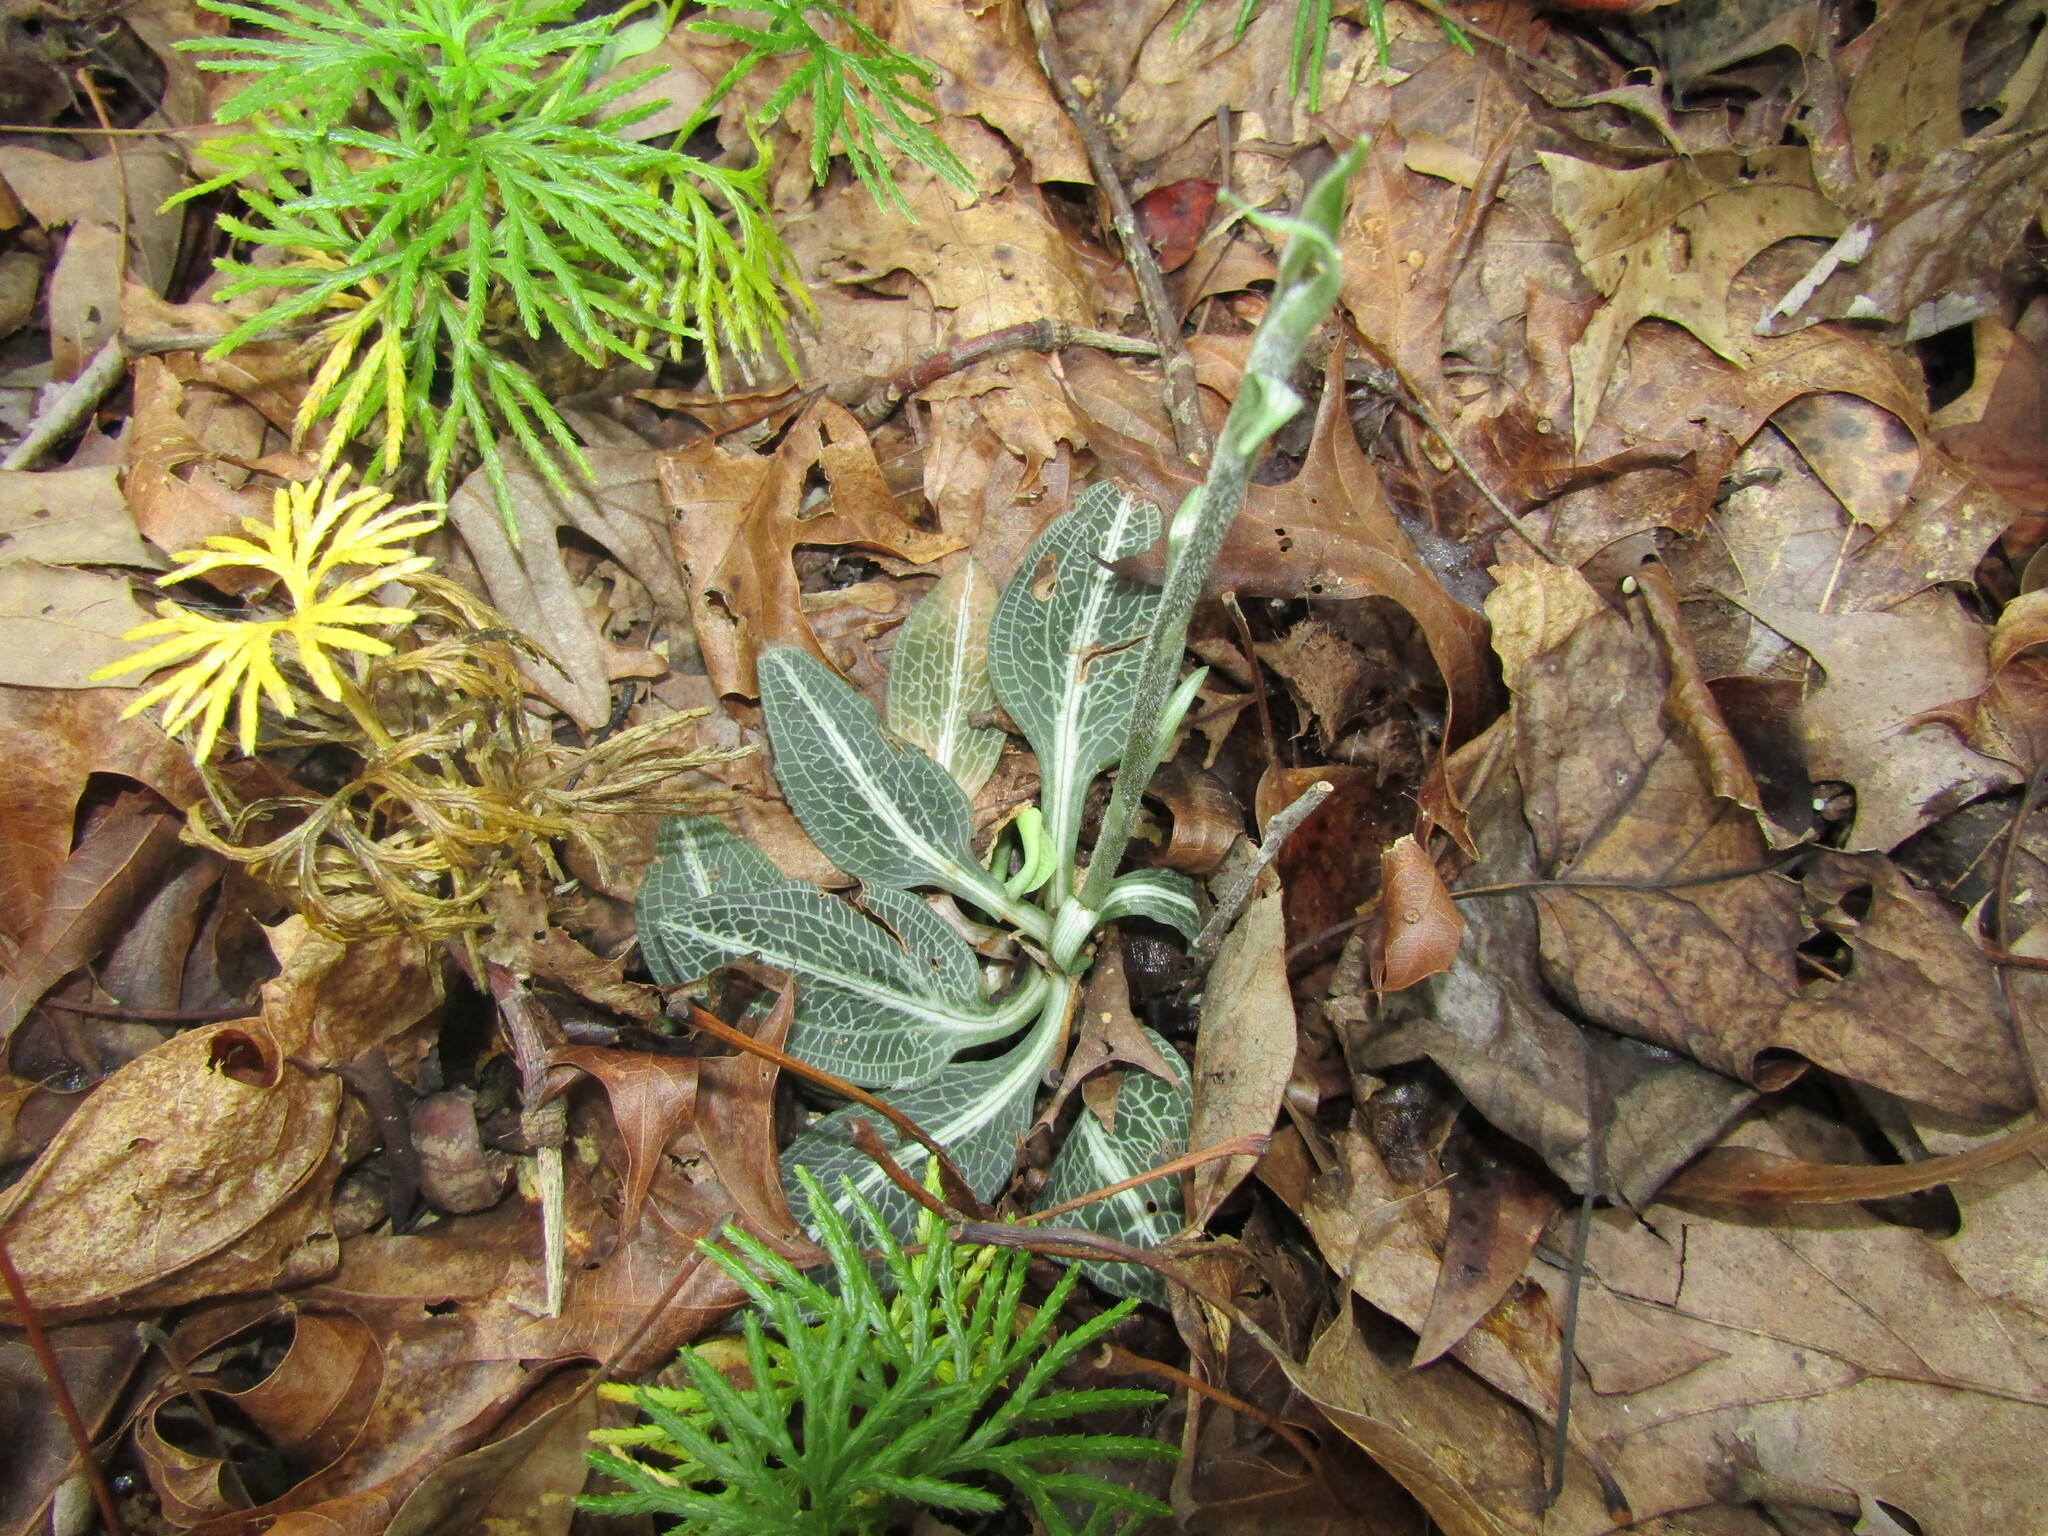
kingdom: Plantae
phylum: Tracheophyta
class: Liliopsida
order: Asparagales
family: Orchidaceae
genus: Goodyera
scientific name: Goodyera pubescens
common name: Downy rattlesnake-plantain
